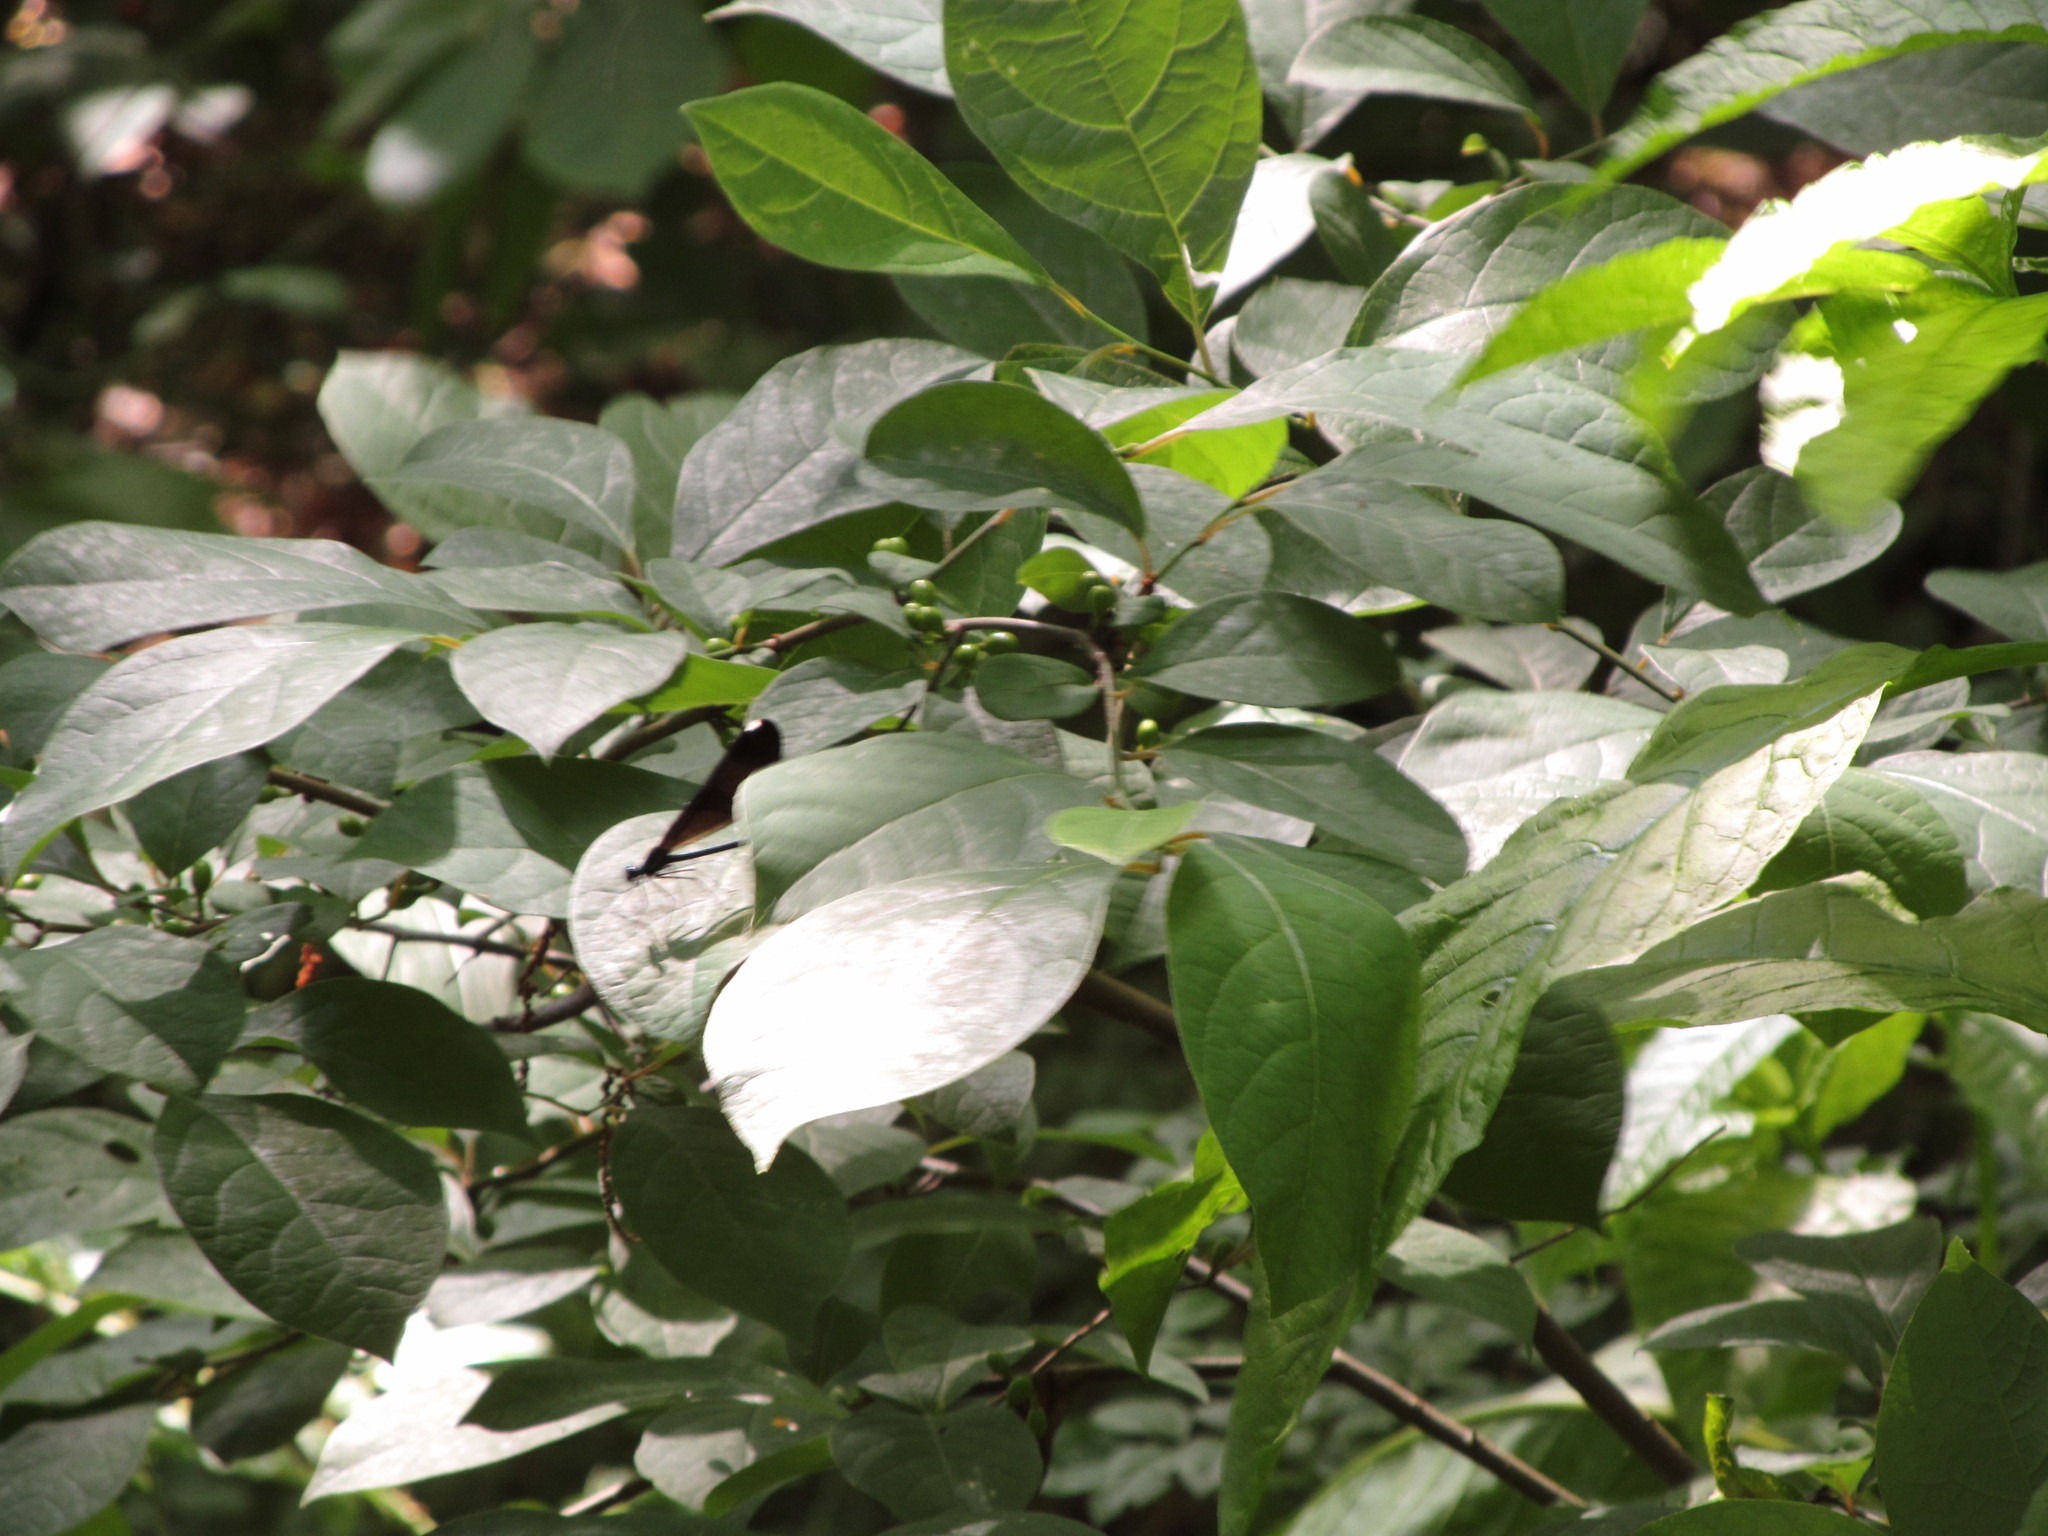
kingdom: Animalia
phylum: Arthropoda
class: Insecta
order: Odonata
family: Calopterygidae
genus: Calopteryx
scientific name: Calopteryx maculata
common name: Ebony jewelwing
